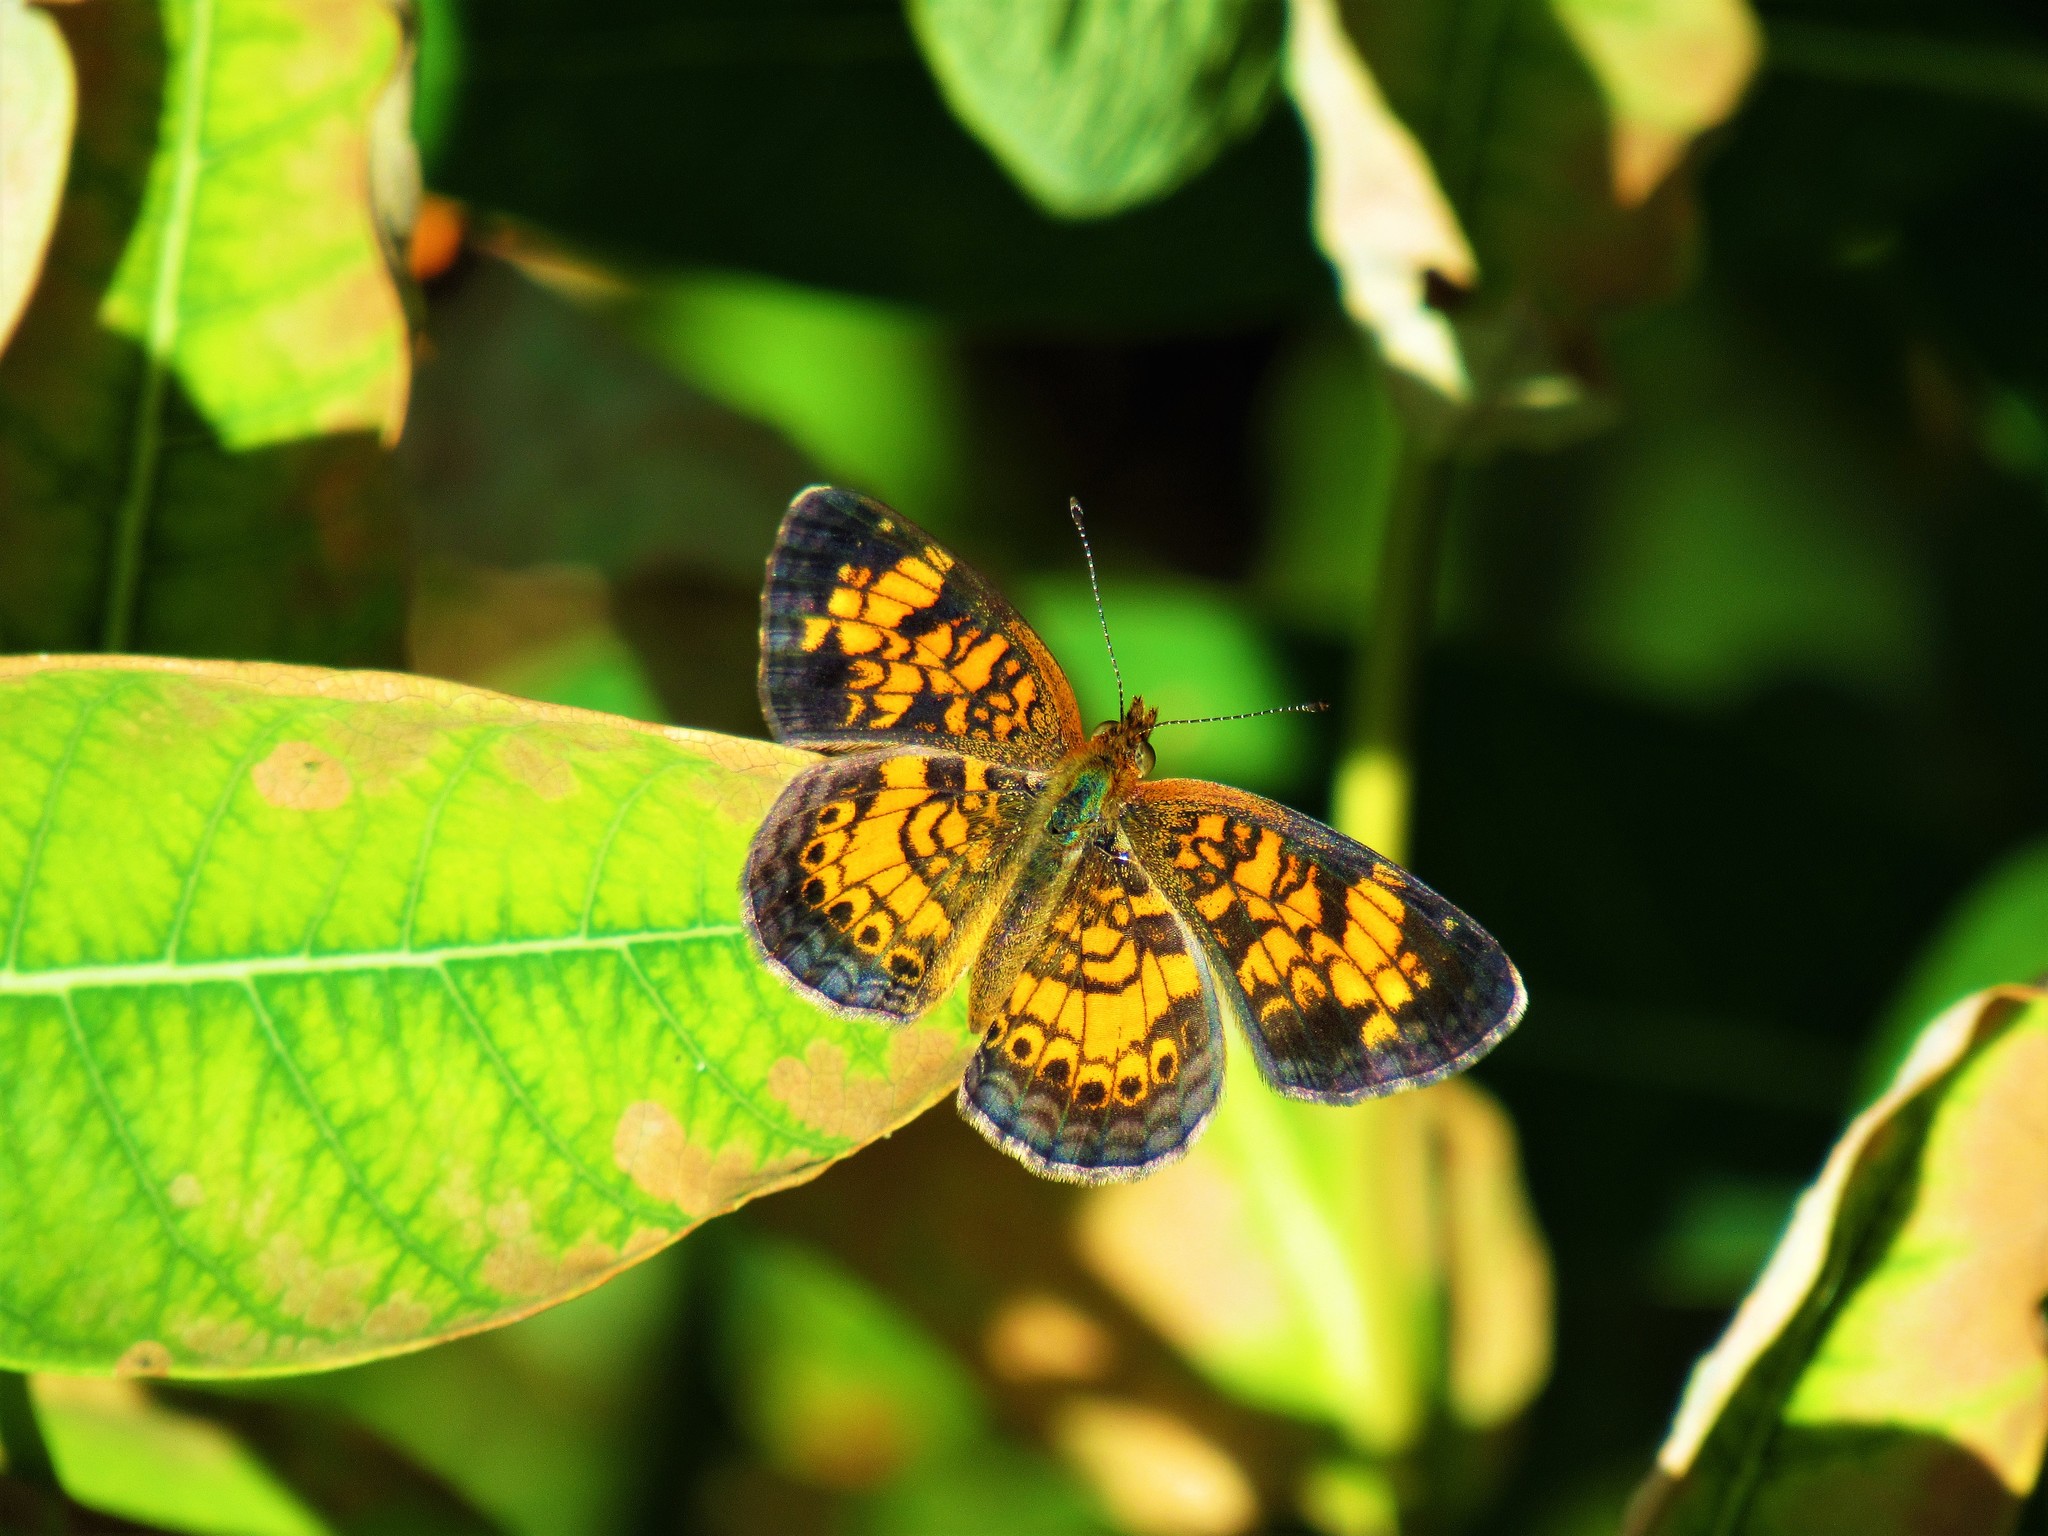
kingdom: Animalia
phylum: Arthropoda
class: Insecta
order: Lepidoptera
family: Nymphalidae
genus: Phyciodes
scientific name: Phyciodes tharos
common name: Pearl crescent
